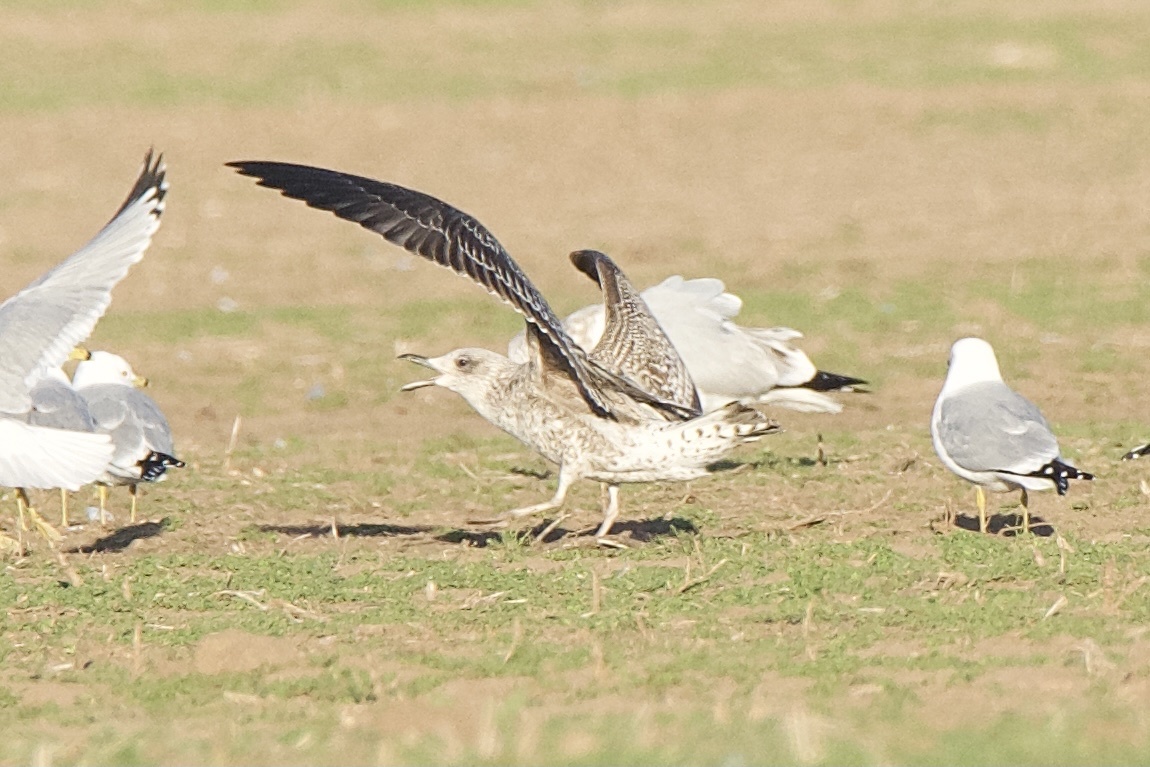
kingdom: Animalia
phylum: Chordata
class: Aves
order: Charadriiformes
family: Laridae
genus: Larus
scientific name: Larus fuscus
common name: Lesser black-backed gull
